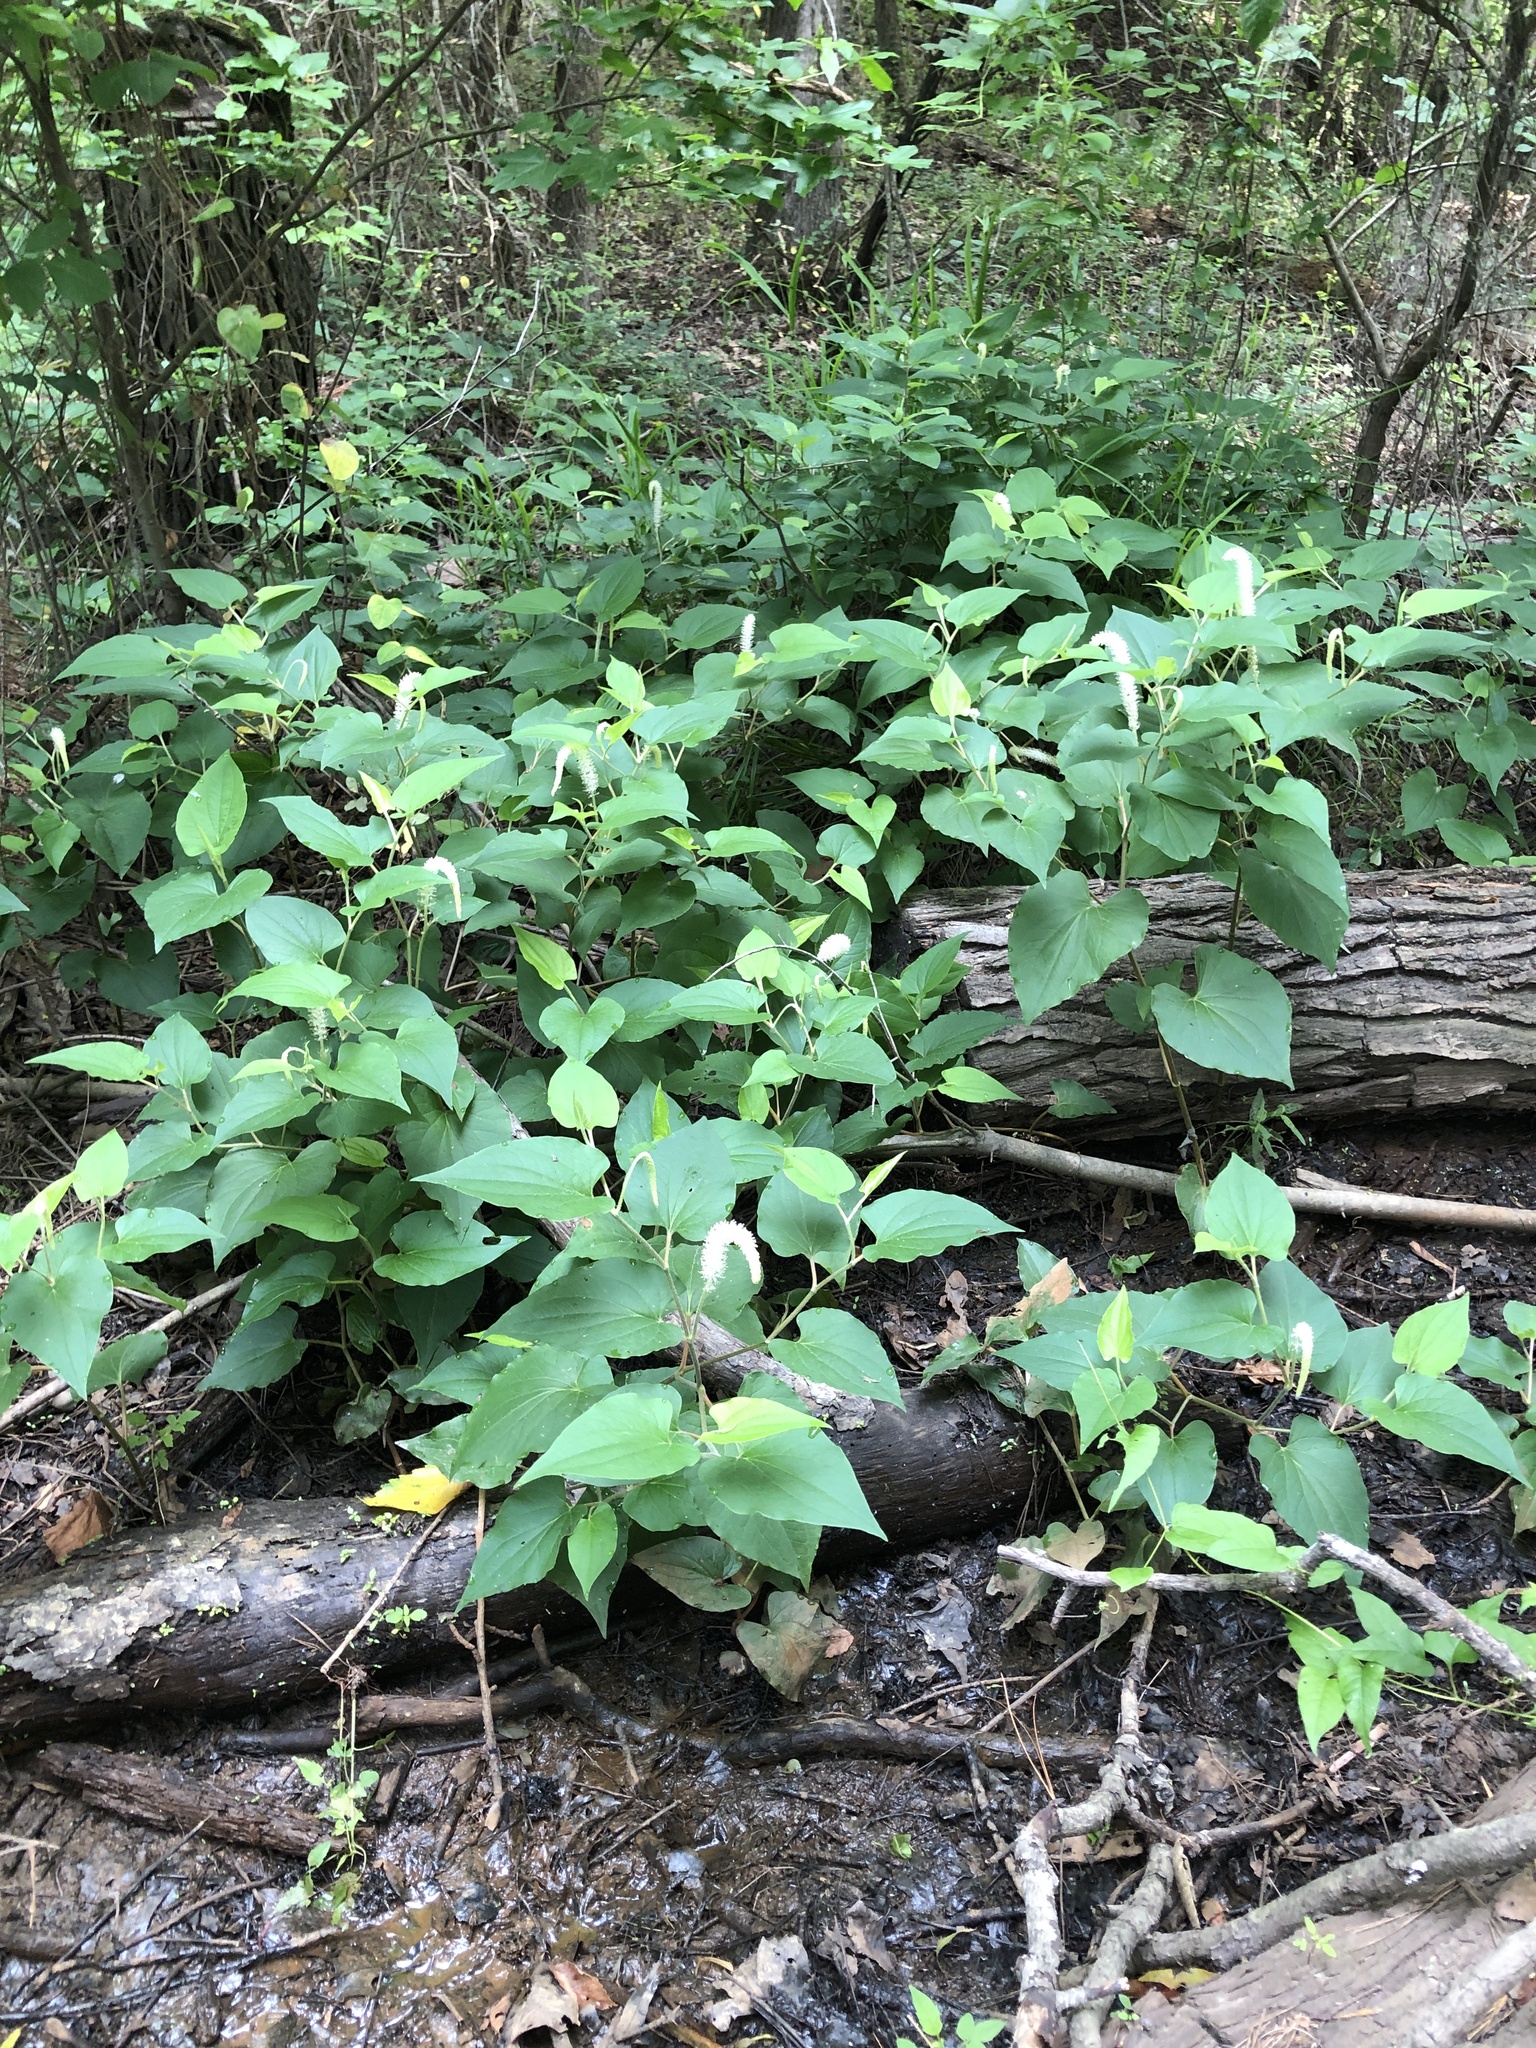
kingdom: Plantae
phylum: Tracheophyta
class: Magnoliopsida
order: Piperales
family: Saururaceae
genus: Saururus
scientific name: Saururus cernuus
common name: Lizard's-tail
